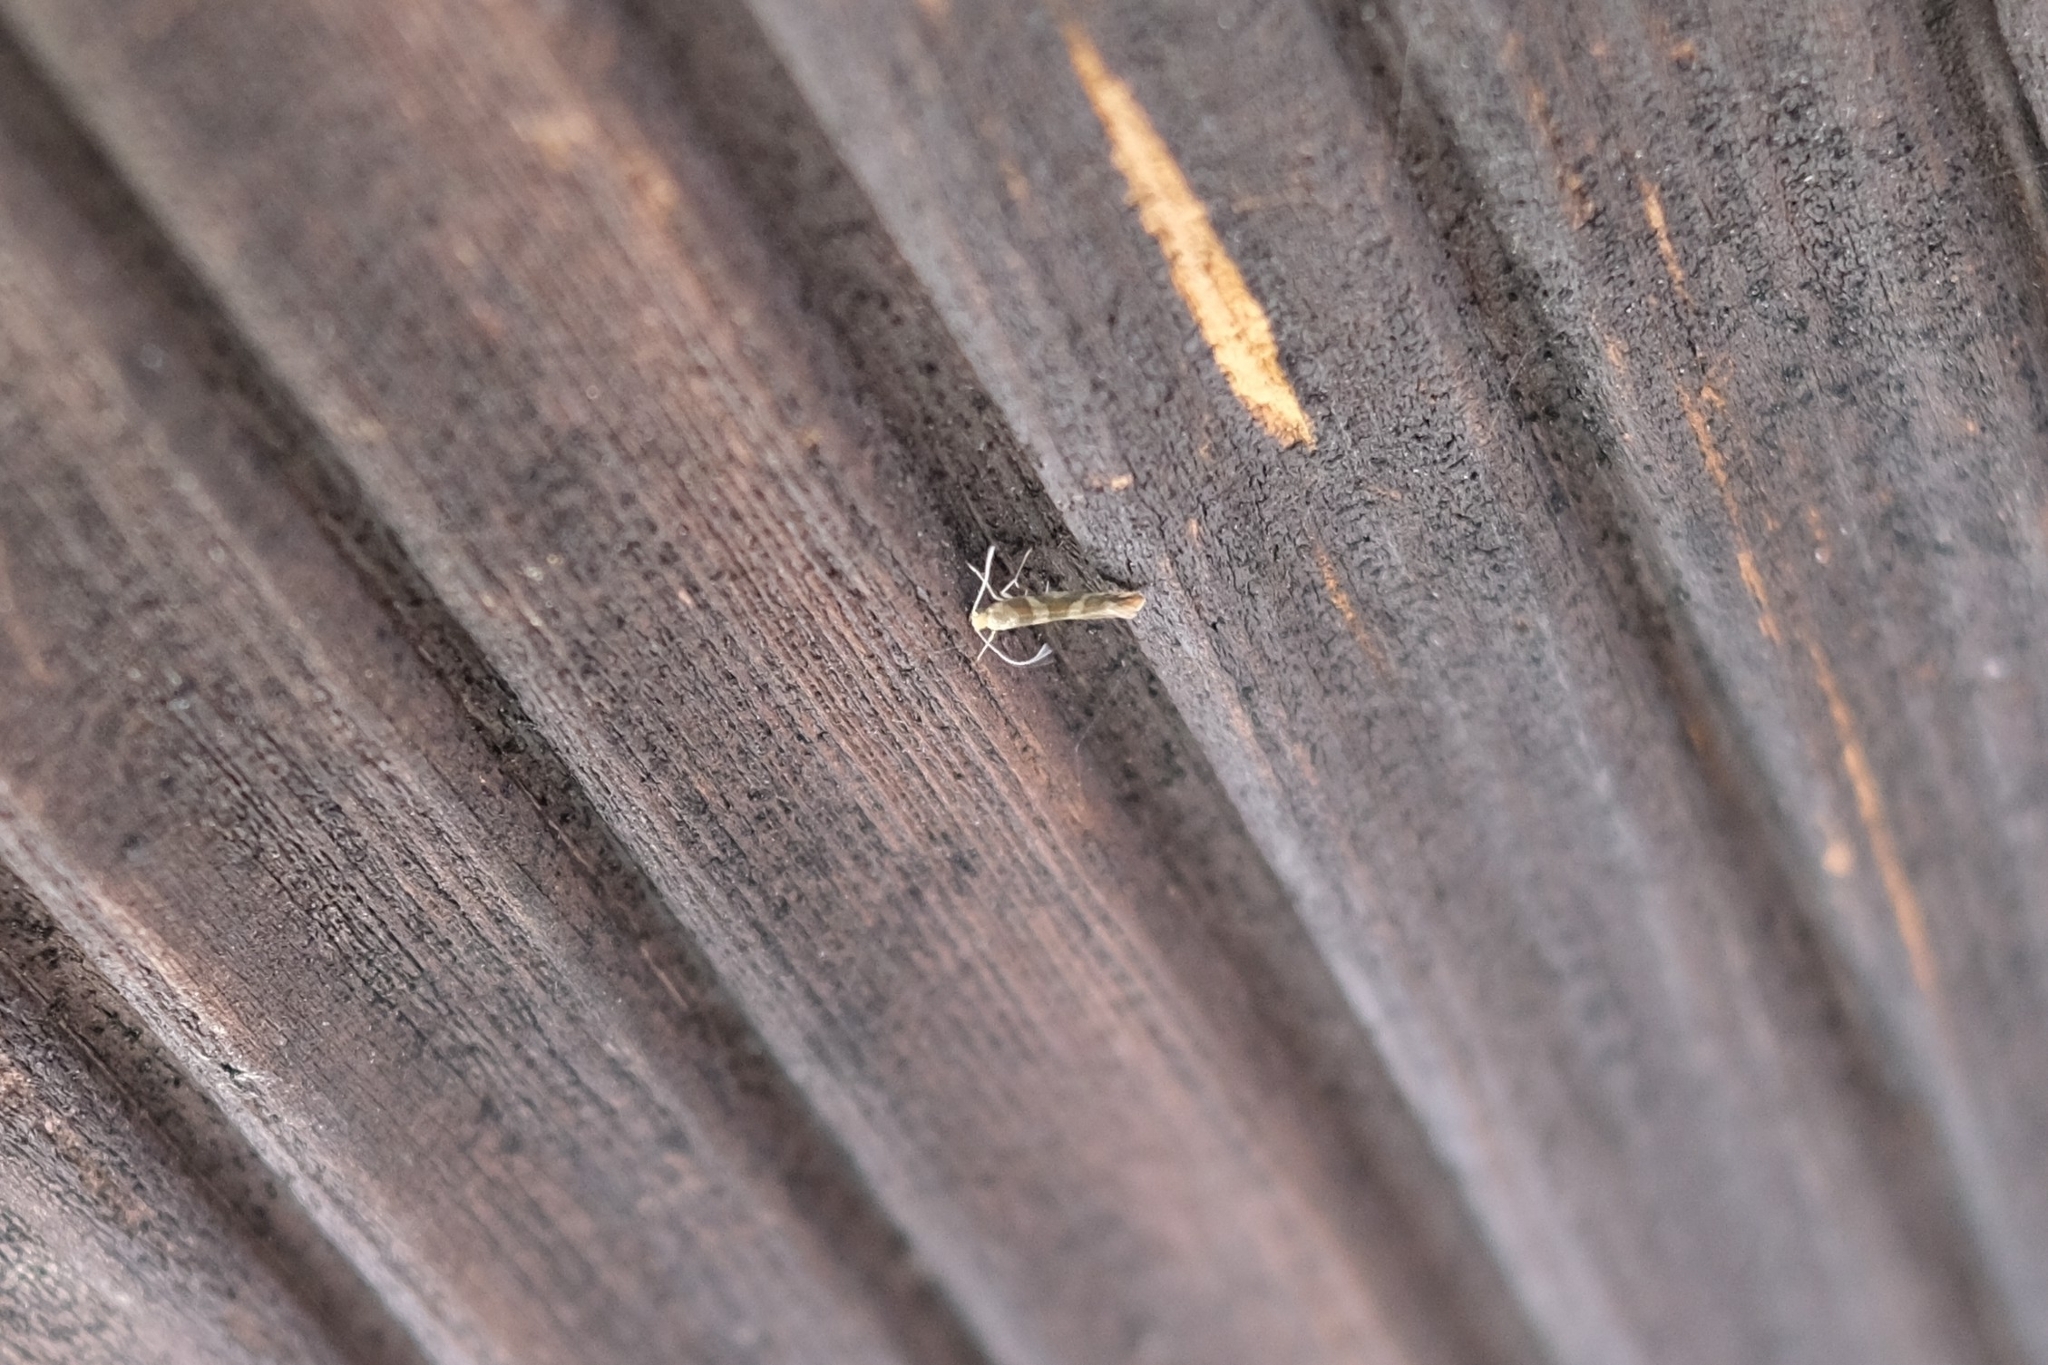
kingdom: Animalia
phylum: Arthropoda
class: Insecta
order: Lepidoptera
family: Argyresthiidae
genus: Argyresthia
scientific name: Argyresthia goedartella
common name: Golden argent
